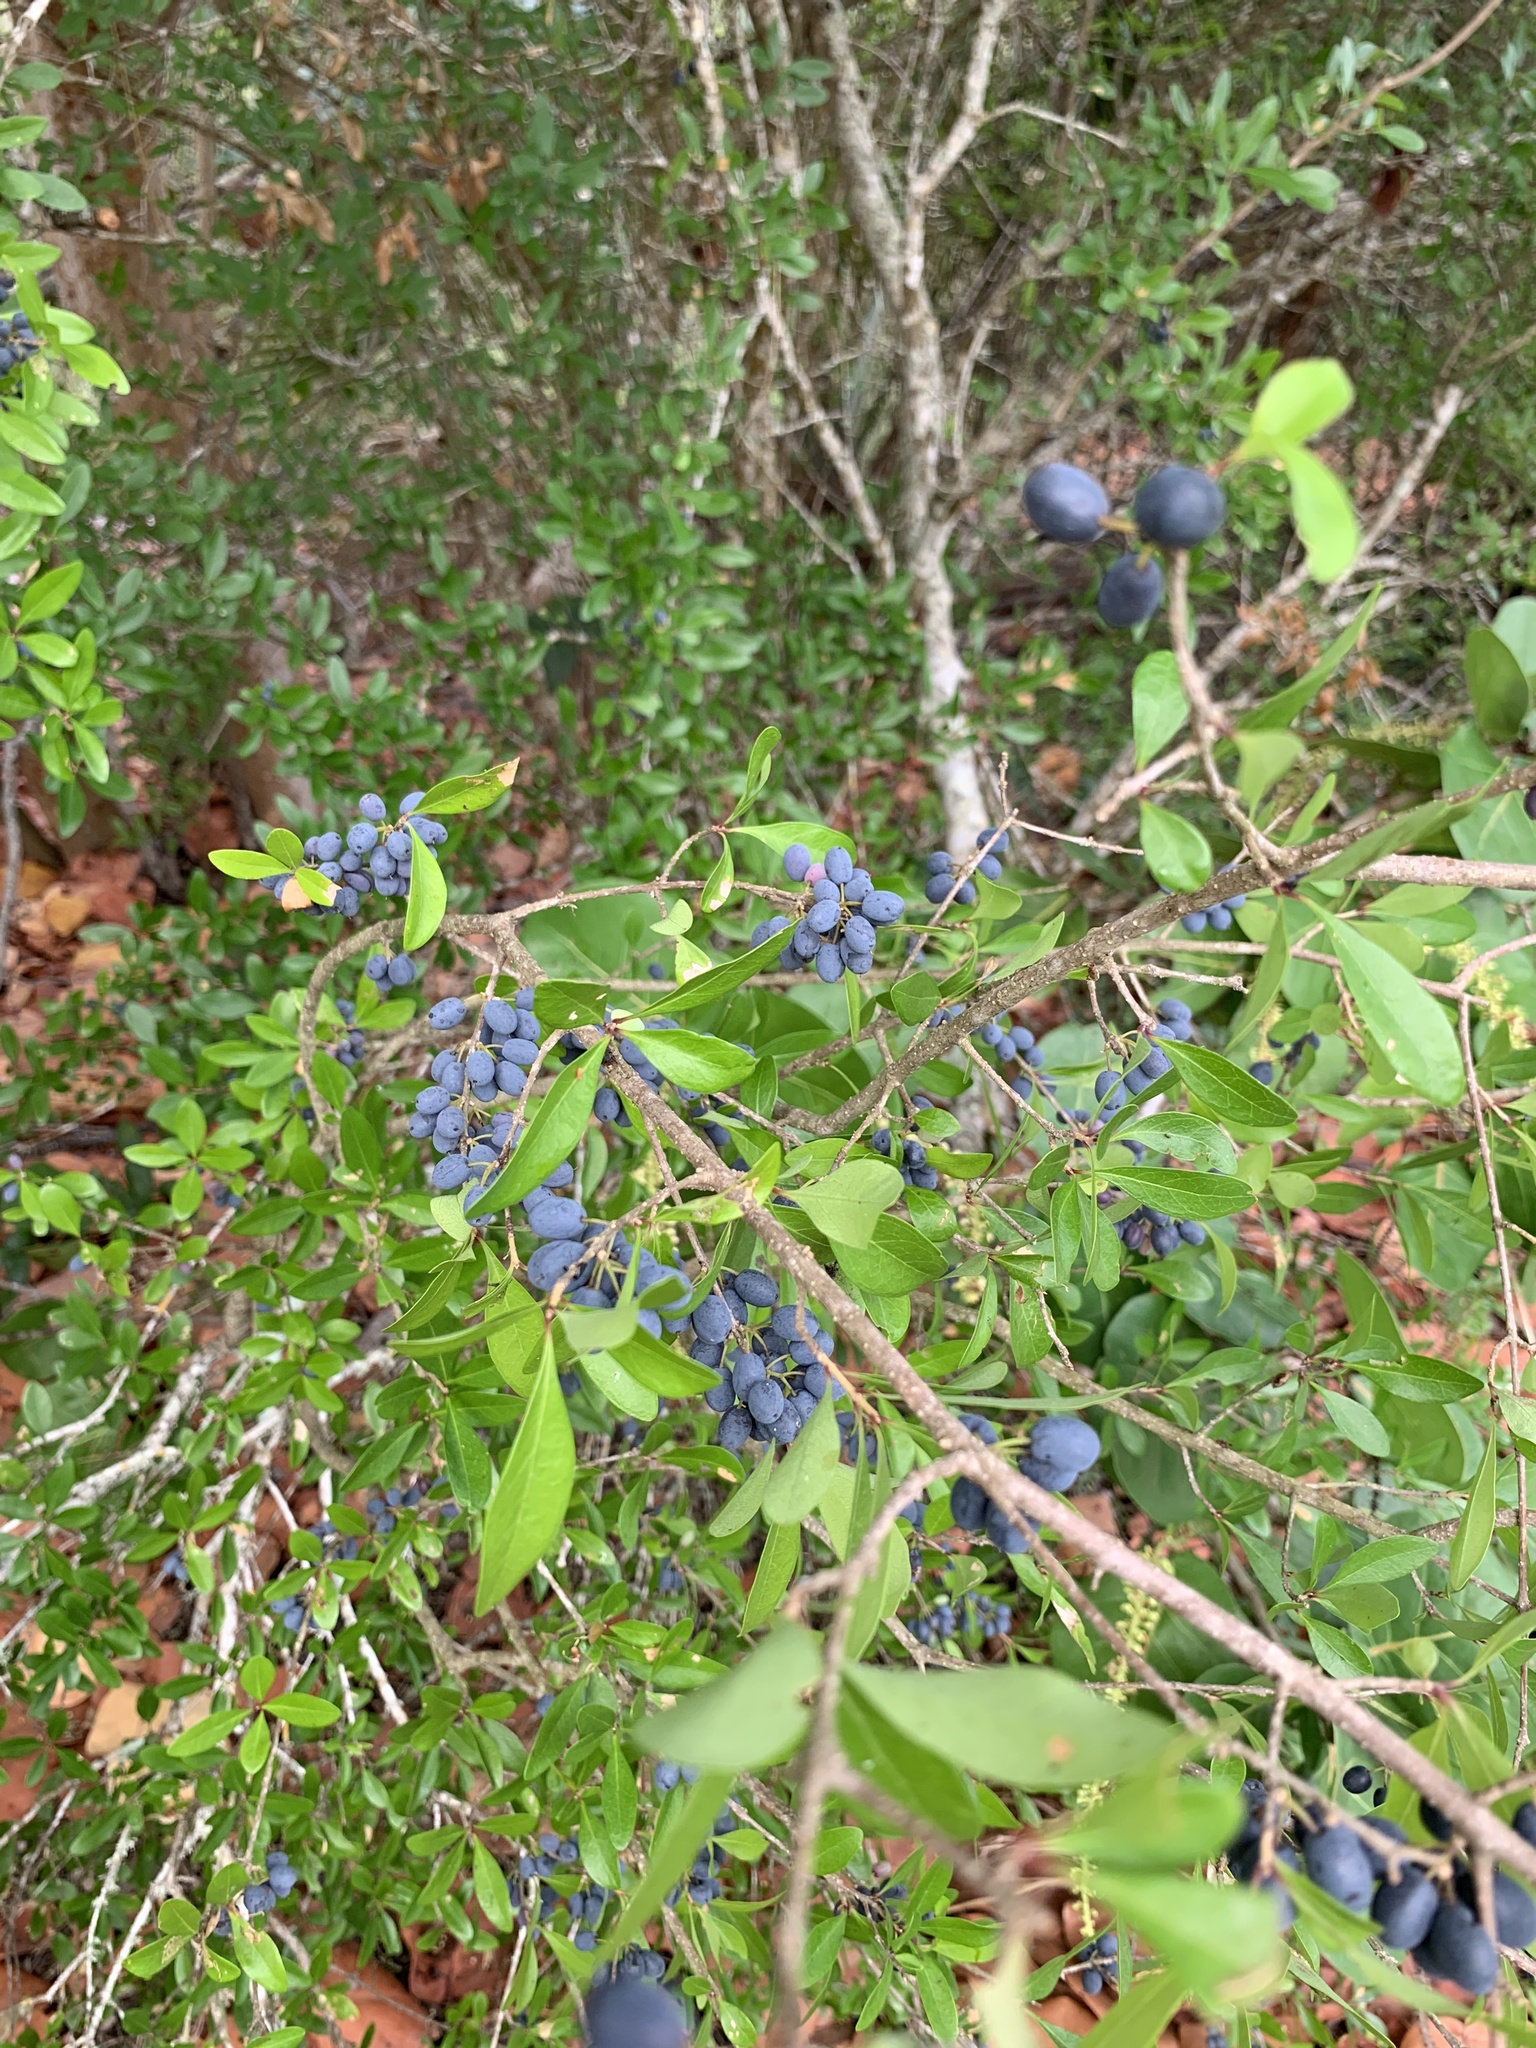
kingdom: Plantae
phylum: Tracheophyta
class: Magnoliopsida
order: Lamiales
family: Oleaceae
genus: Forestiera
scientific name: Forestiera segregata
